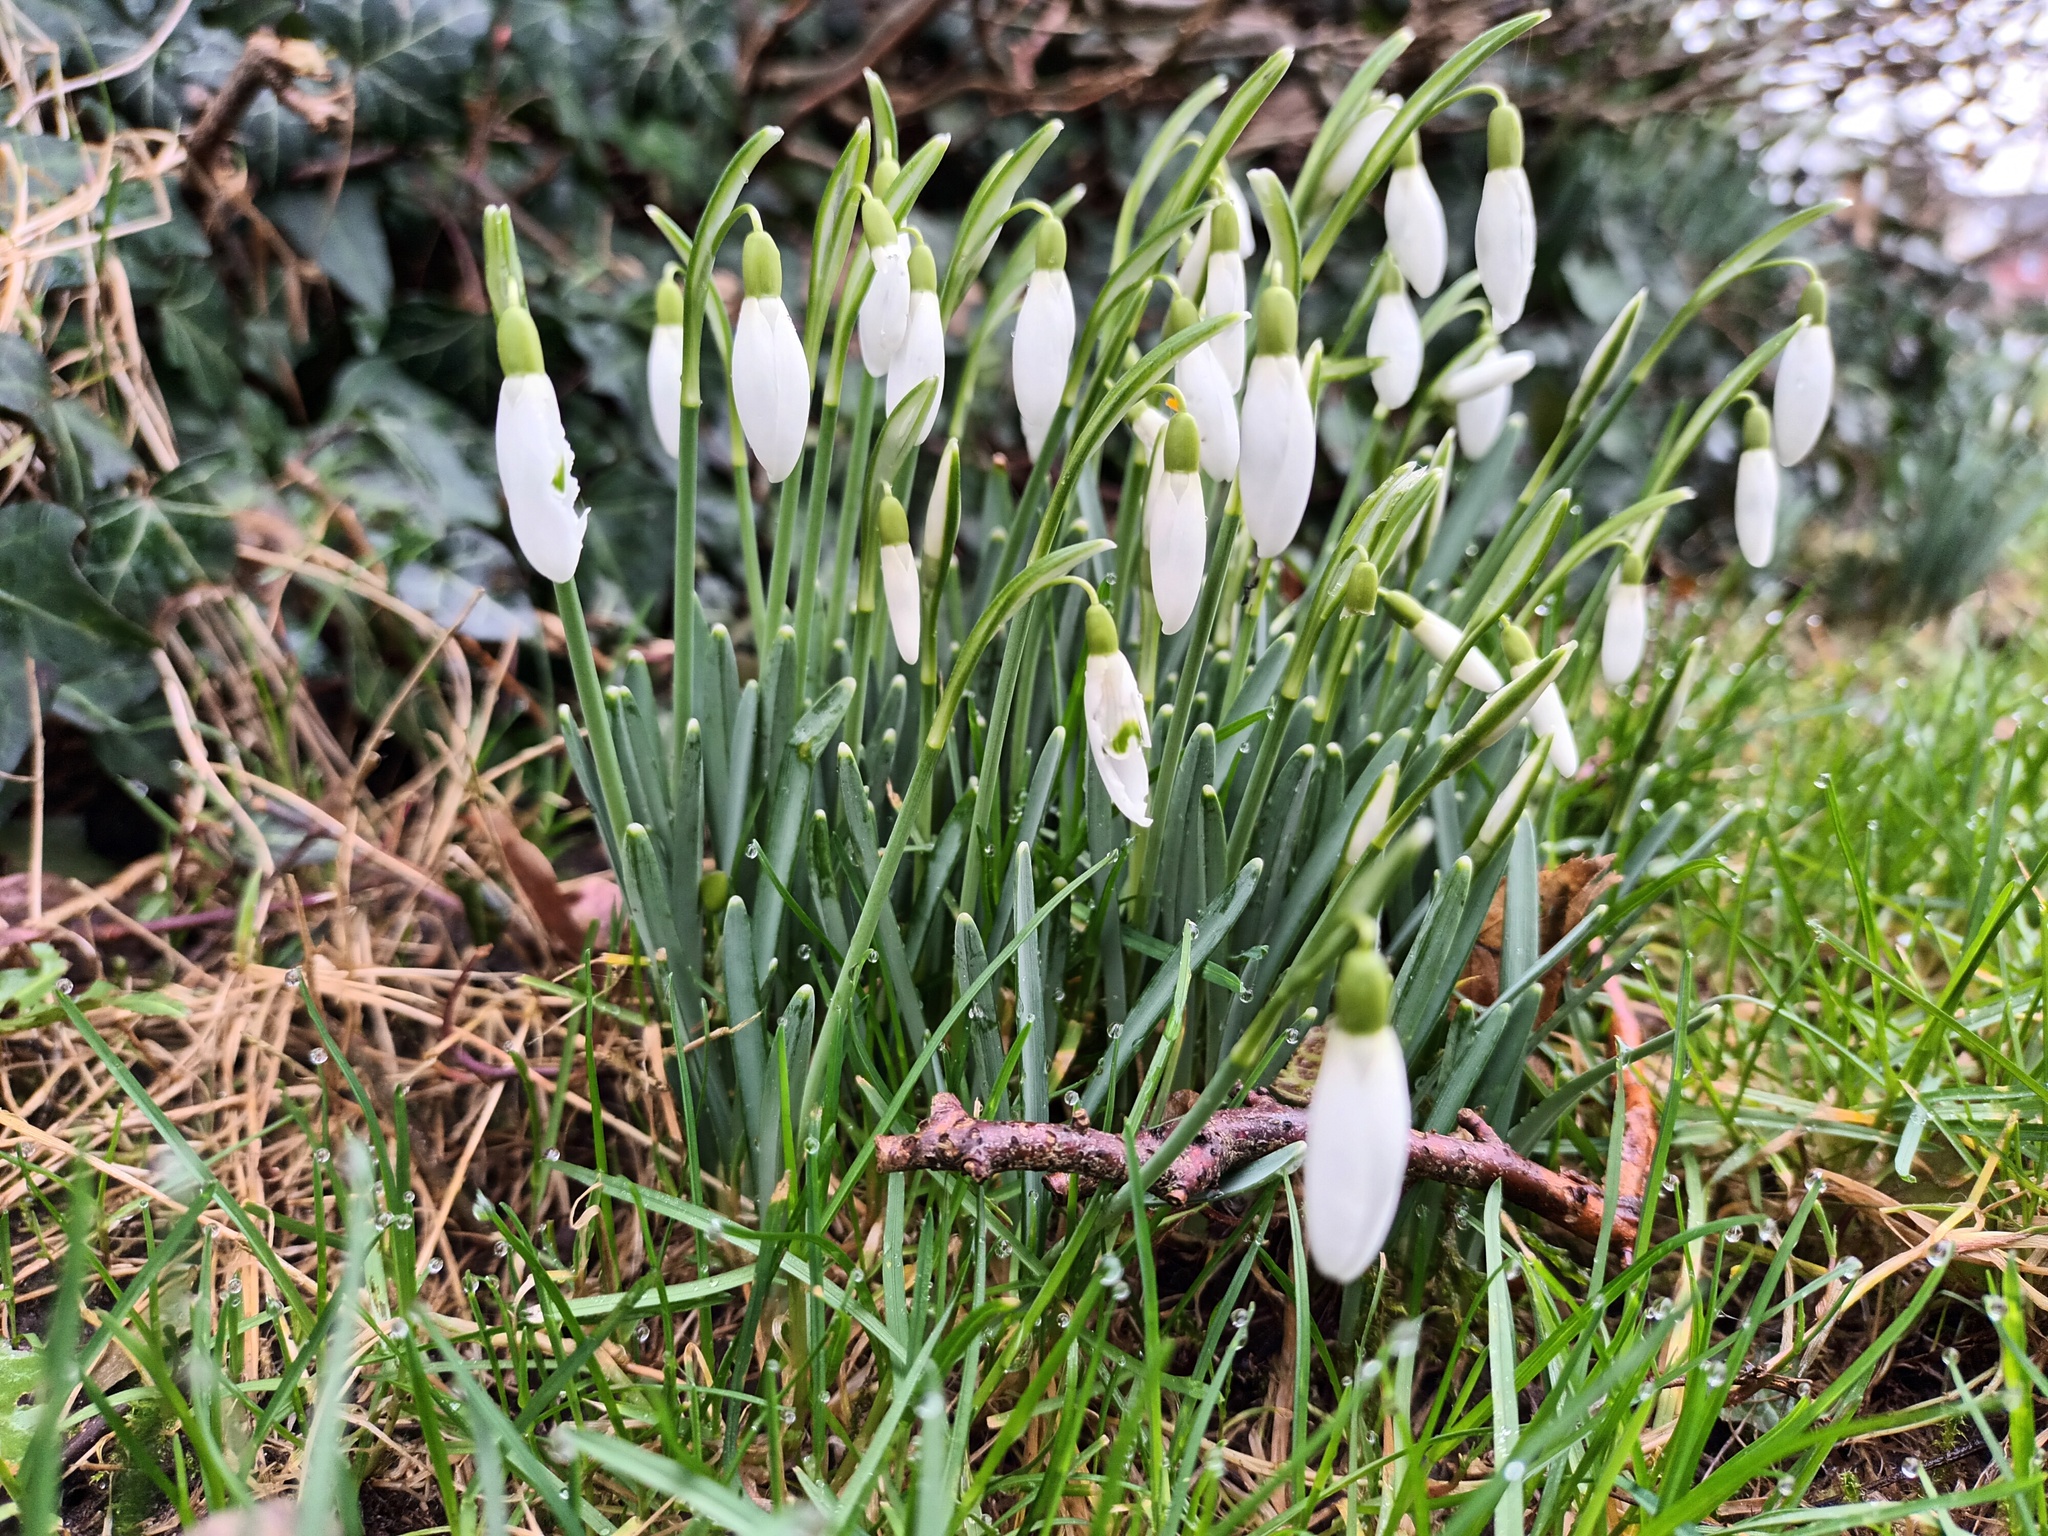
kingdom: Plantae
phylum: Tracheophyta
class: Liliopsida
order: Asparagales
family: Amaryllidaceae
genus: Galanthus
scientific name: Galanthus nivalis
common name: Snowdrop
